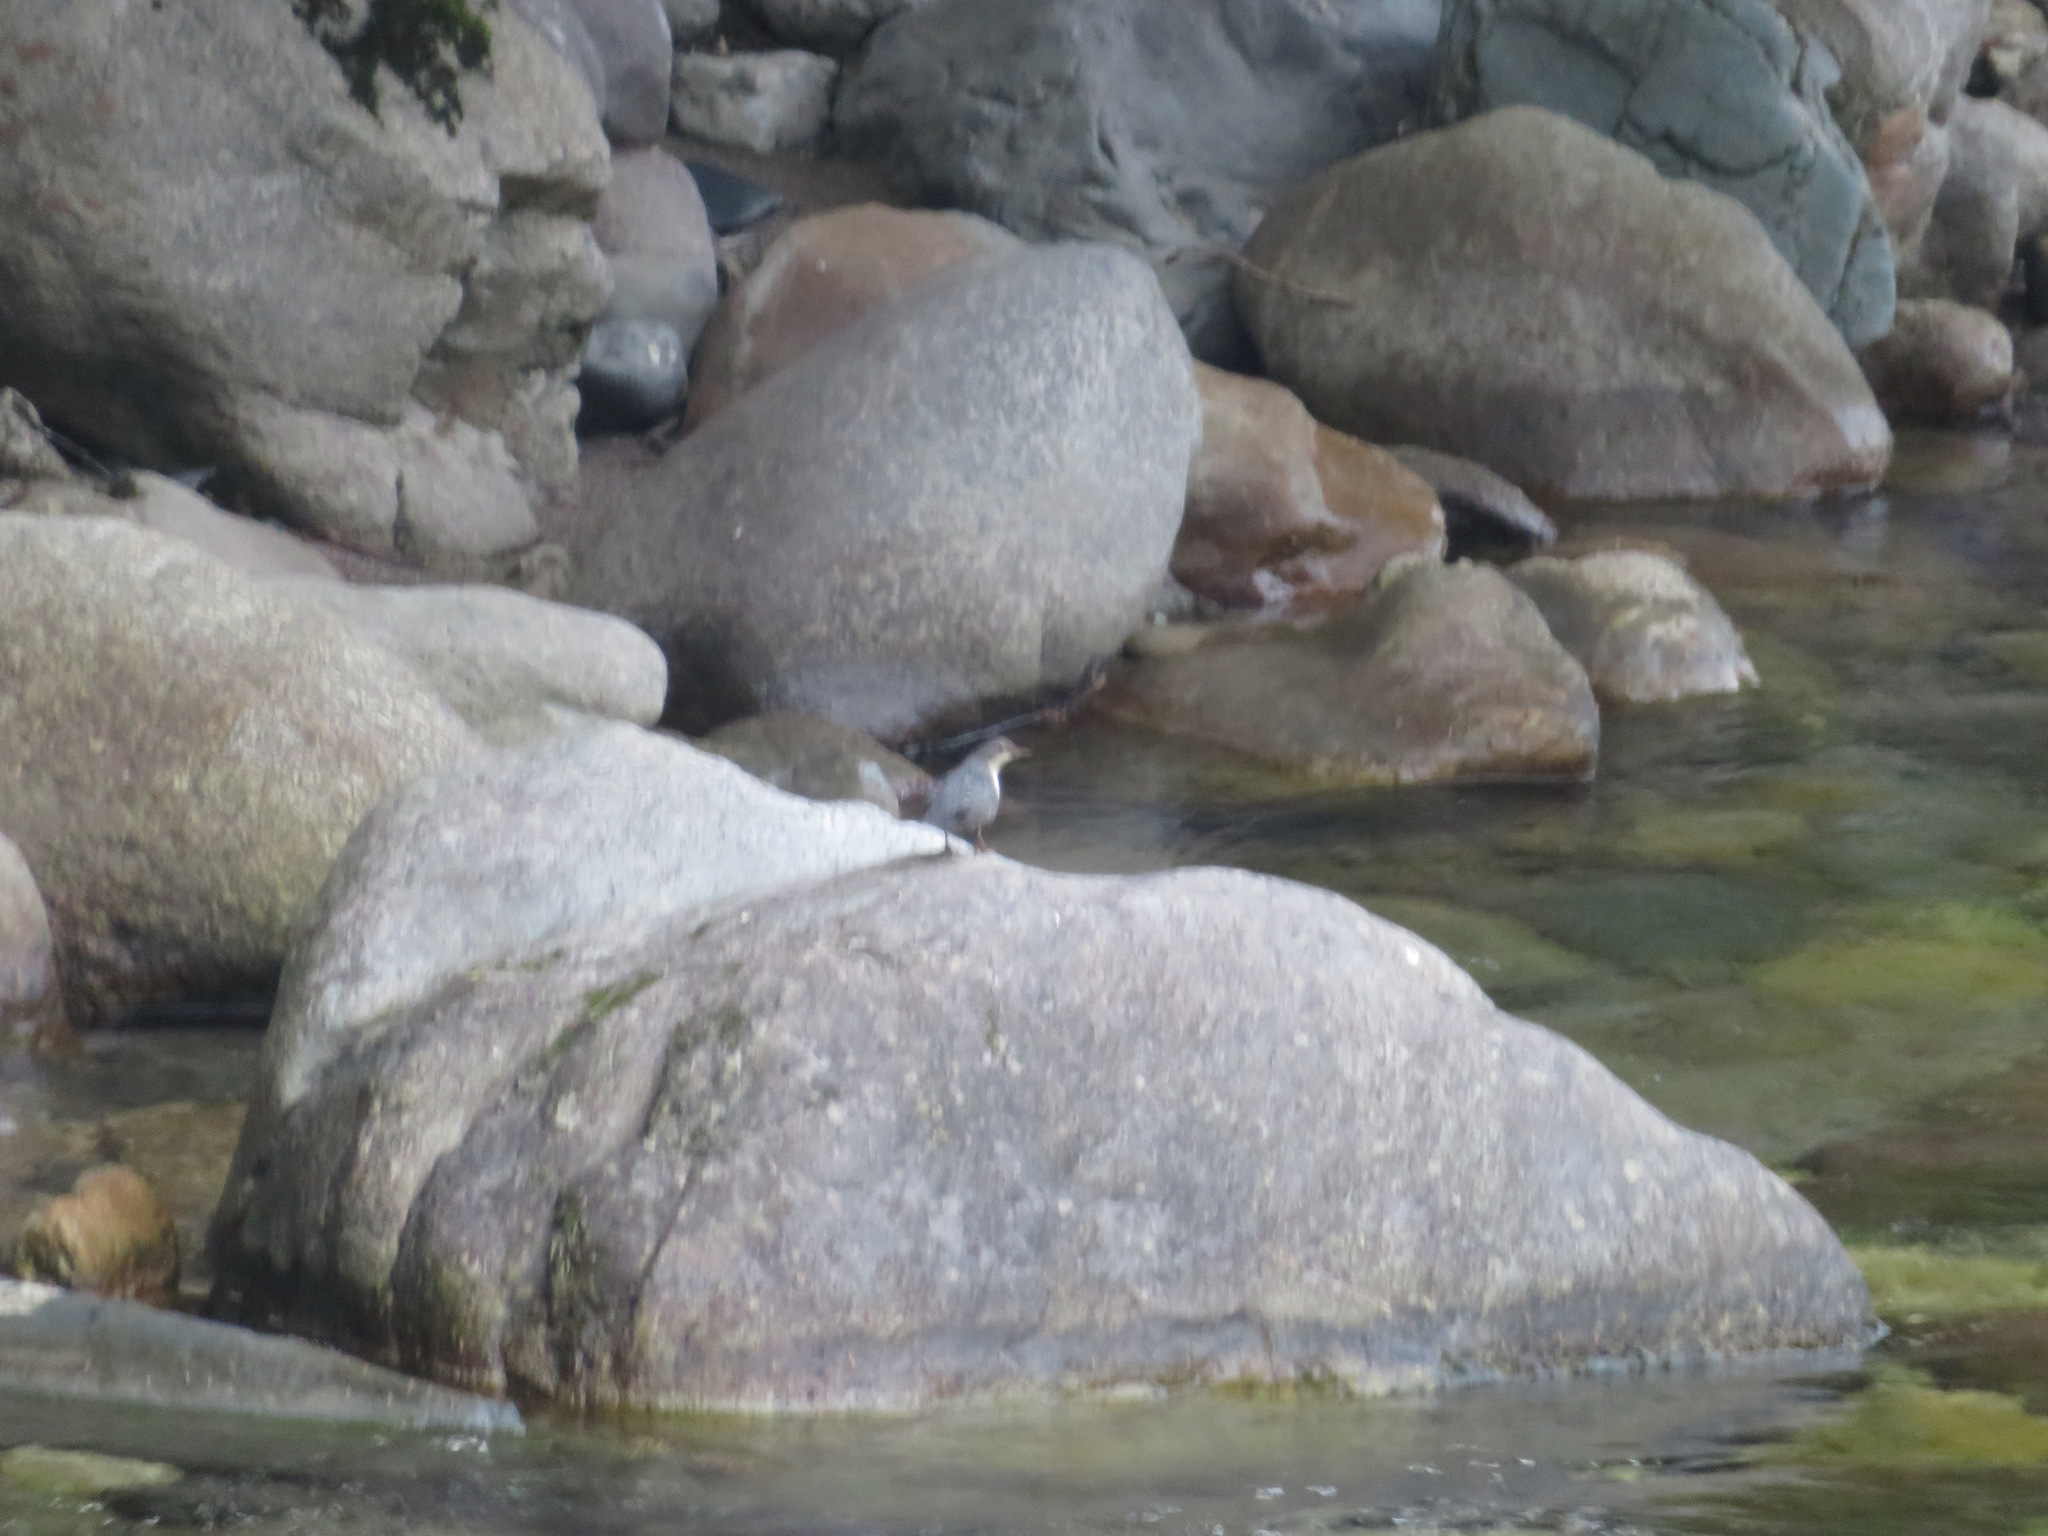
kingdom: Animalia
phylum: Chordata
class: Aves
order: Passeriformes
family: Cinclidae
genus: Cinclus
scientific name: Cinclus cinclus
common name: White-throated dipper
